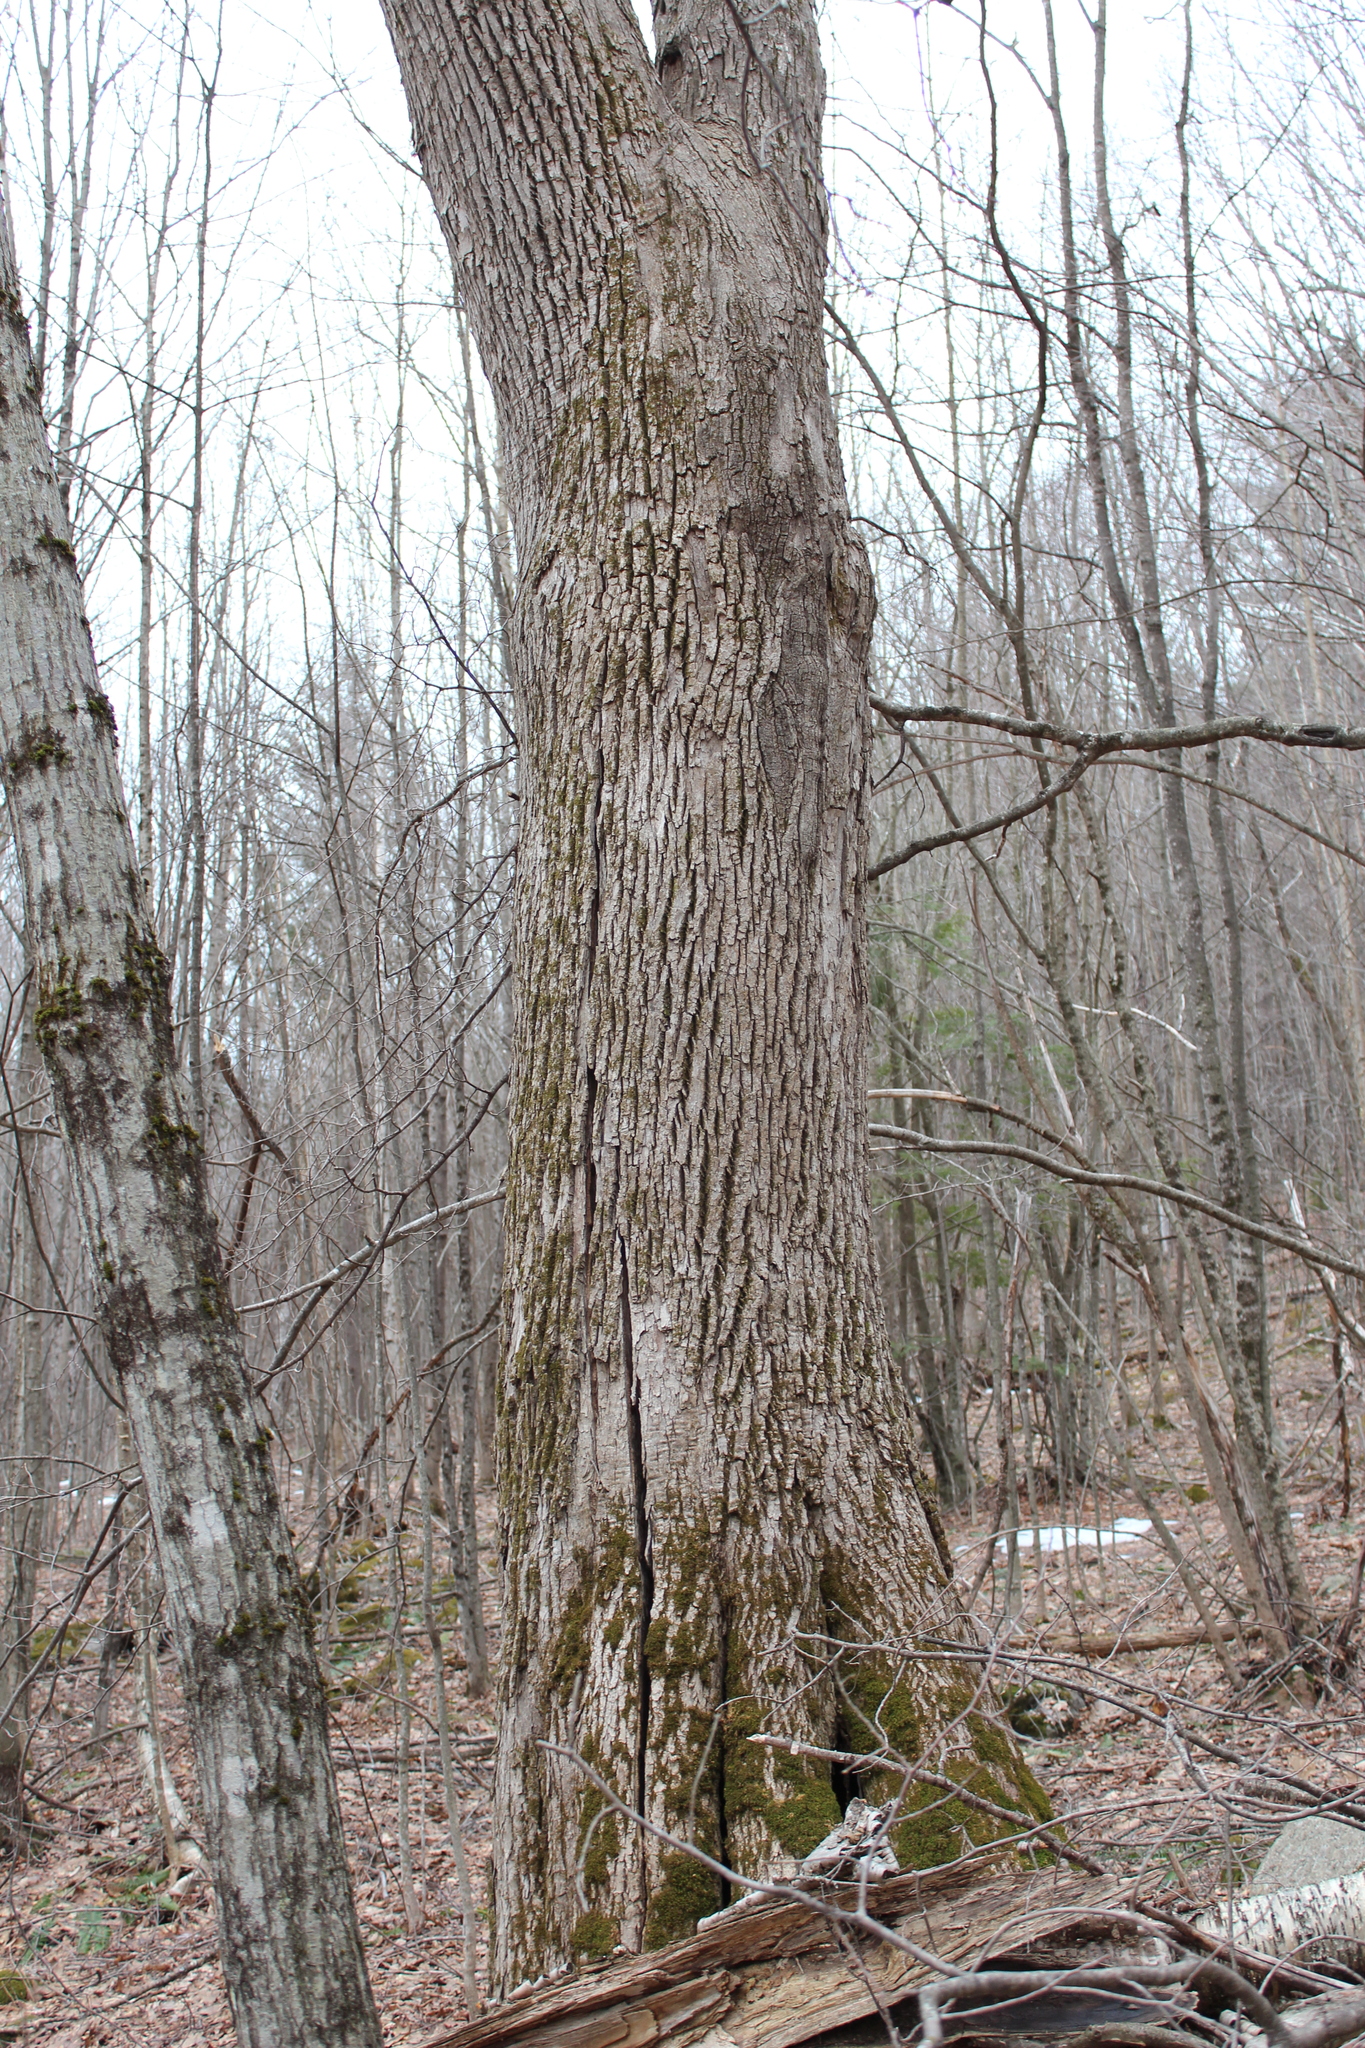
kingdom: Plantae
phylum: Tracheophyta
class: Magnoliopsida
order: Lamiales
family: Oleaceae
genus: Fraxinus
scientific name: Fraxinus americana
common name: White ash
